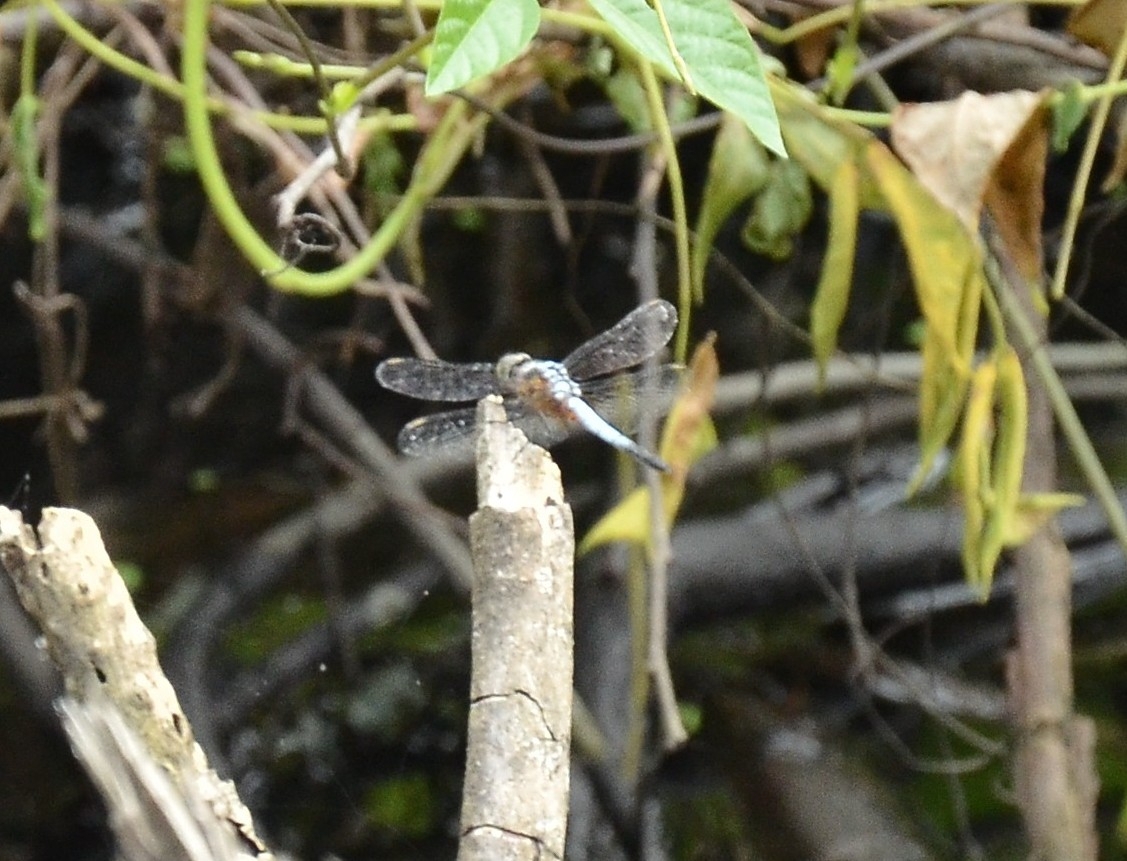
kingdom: Animalia
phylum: Arthropoda
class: Insecta
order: Odonata
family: Libellulidae
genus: Brachydiplax
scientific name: Brachydiplax chalybea
